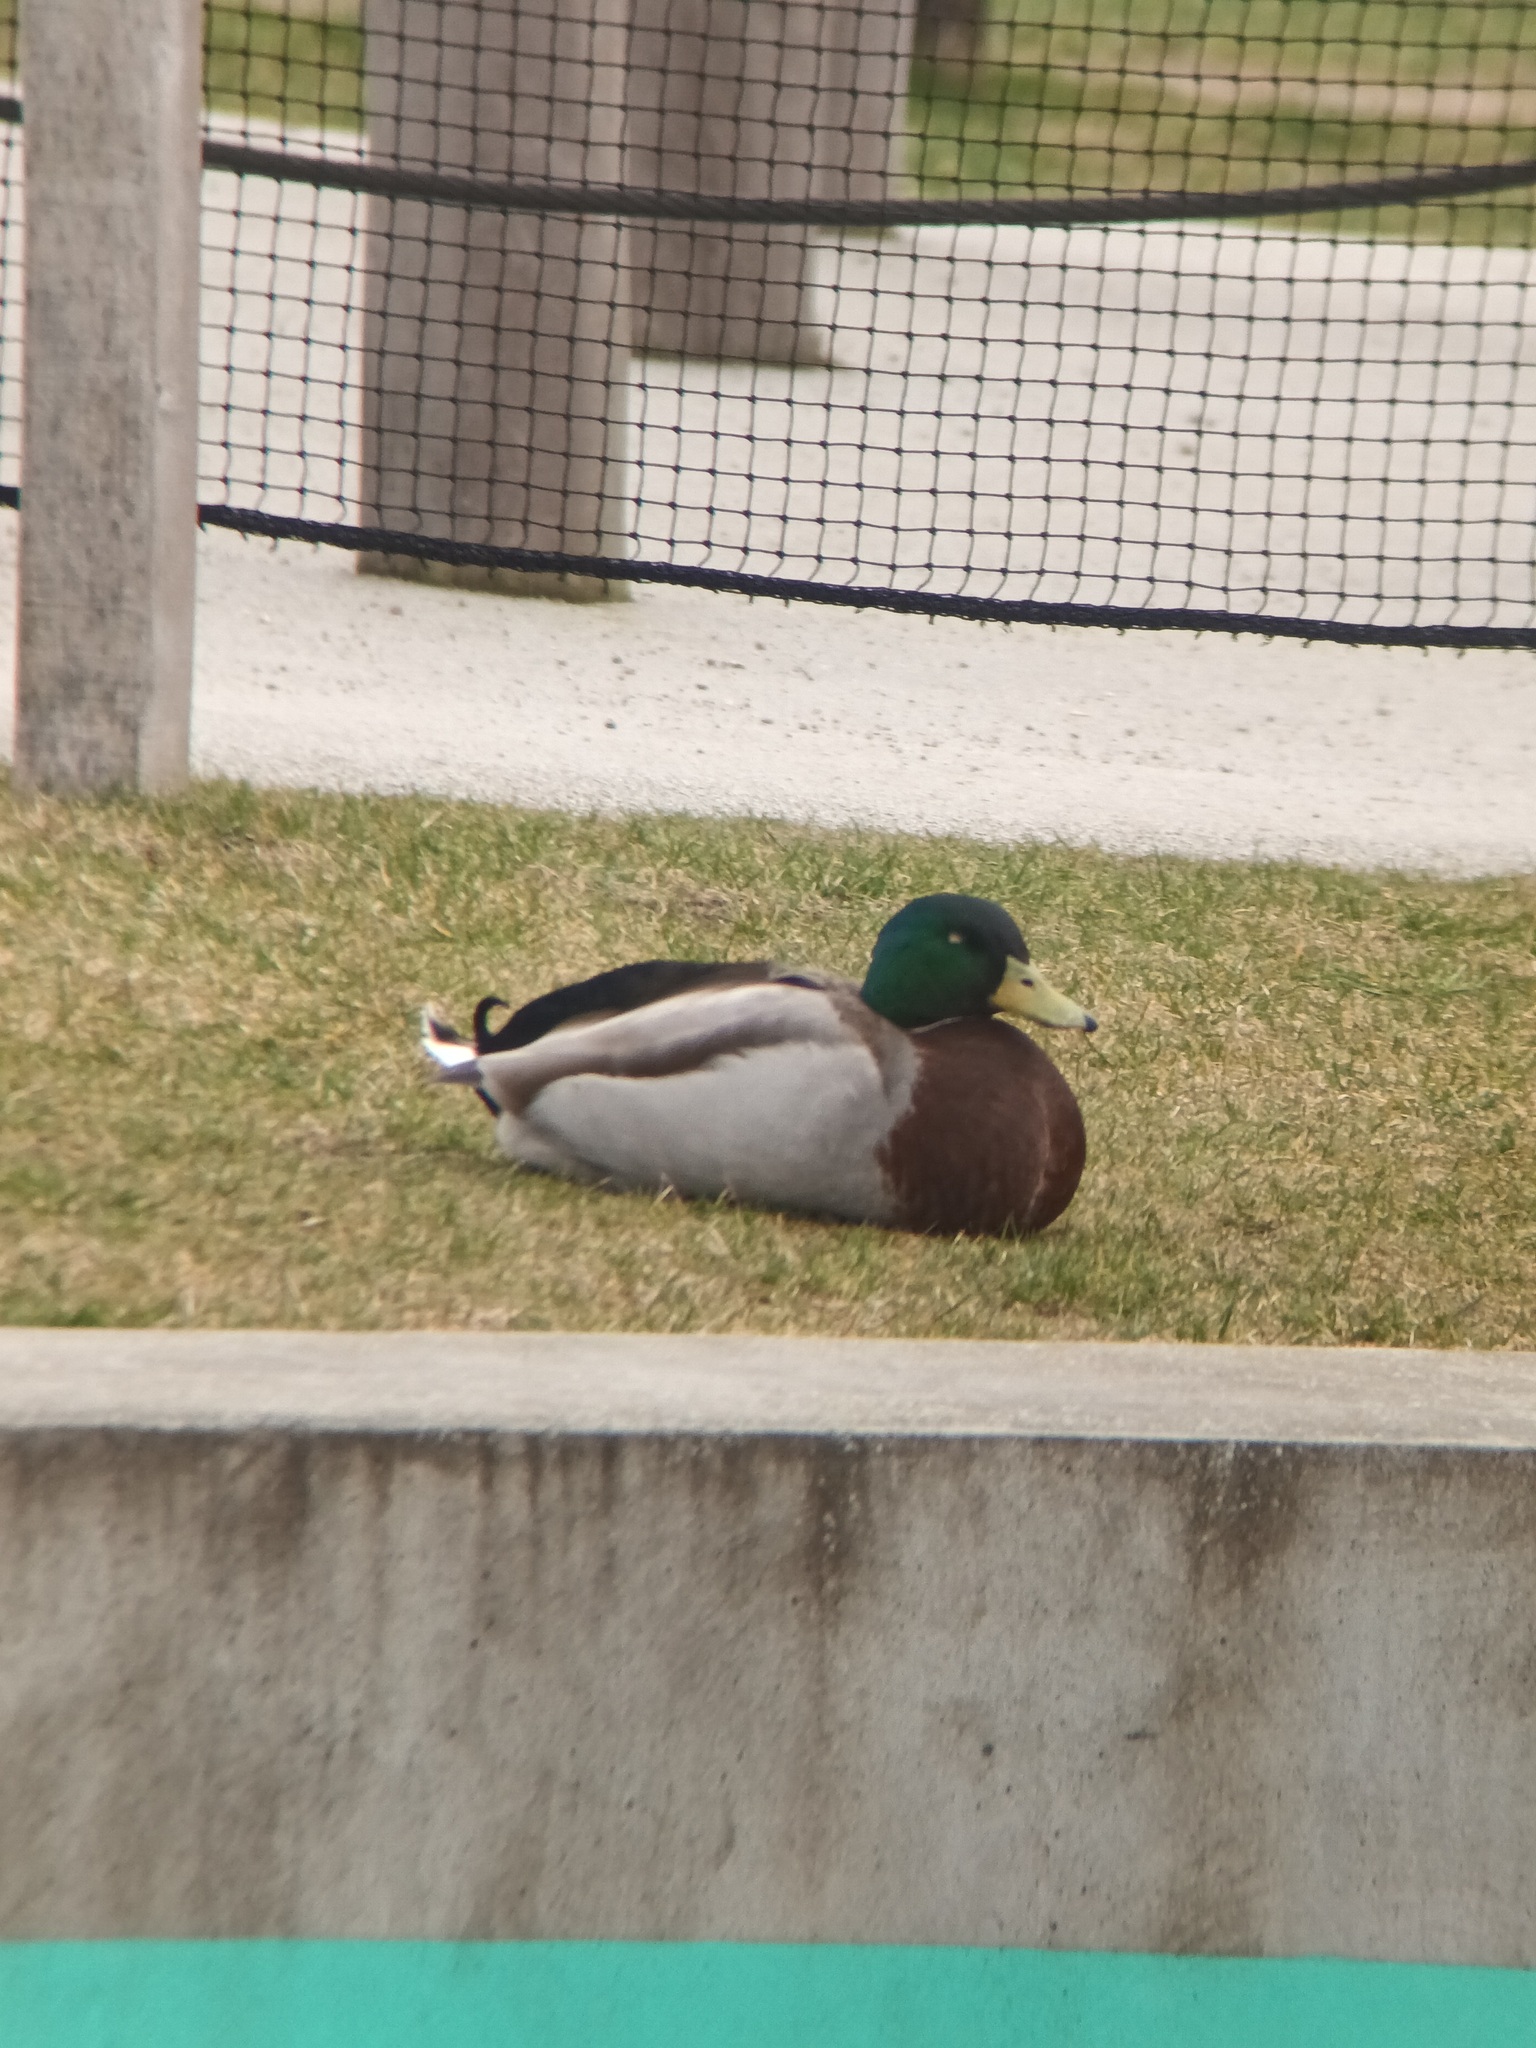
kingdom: Animalia
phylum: Chordata
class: Aves
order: Anseriformes
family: Anatidae
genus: Anas
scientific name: Anas platyrhynchos
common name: Mallard
